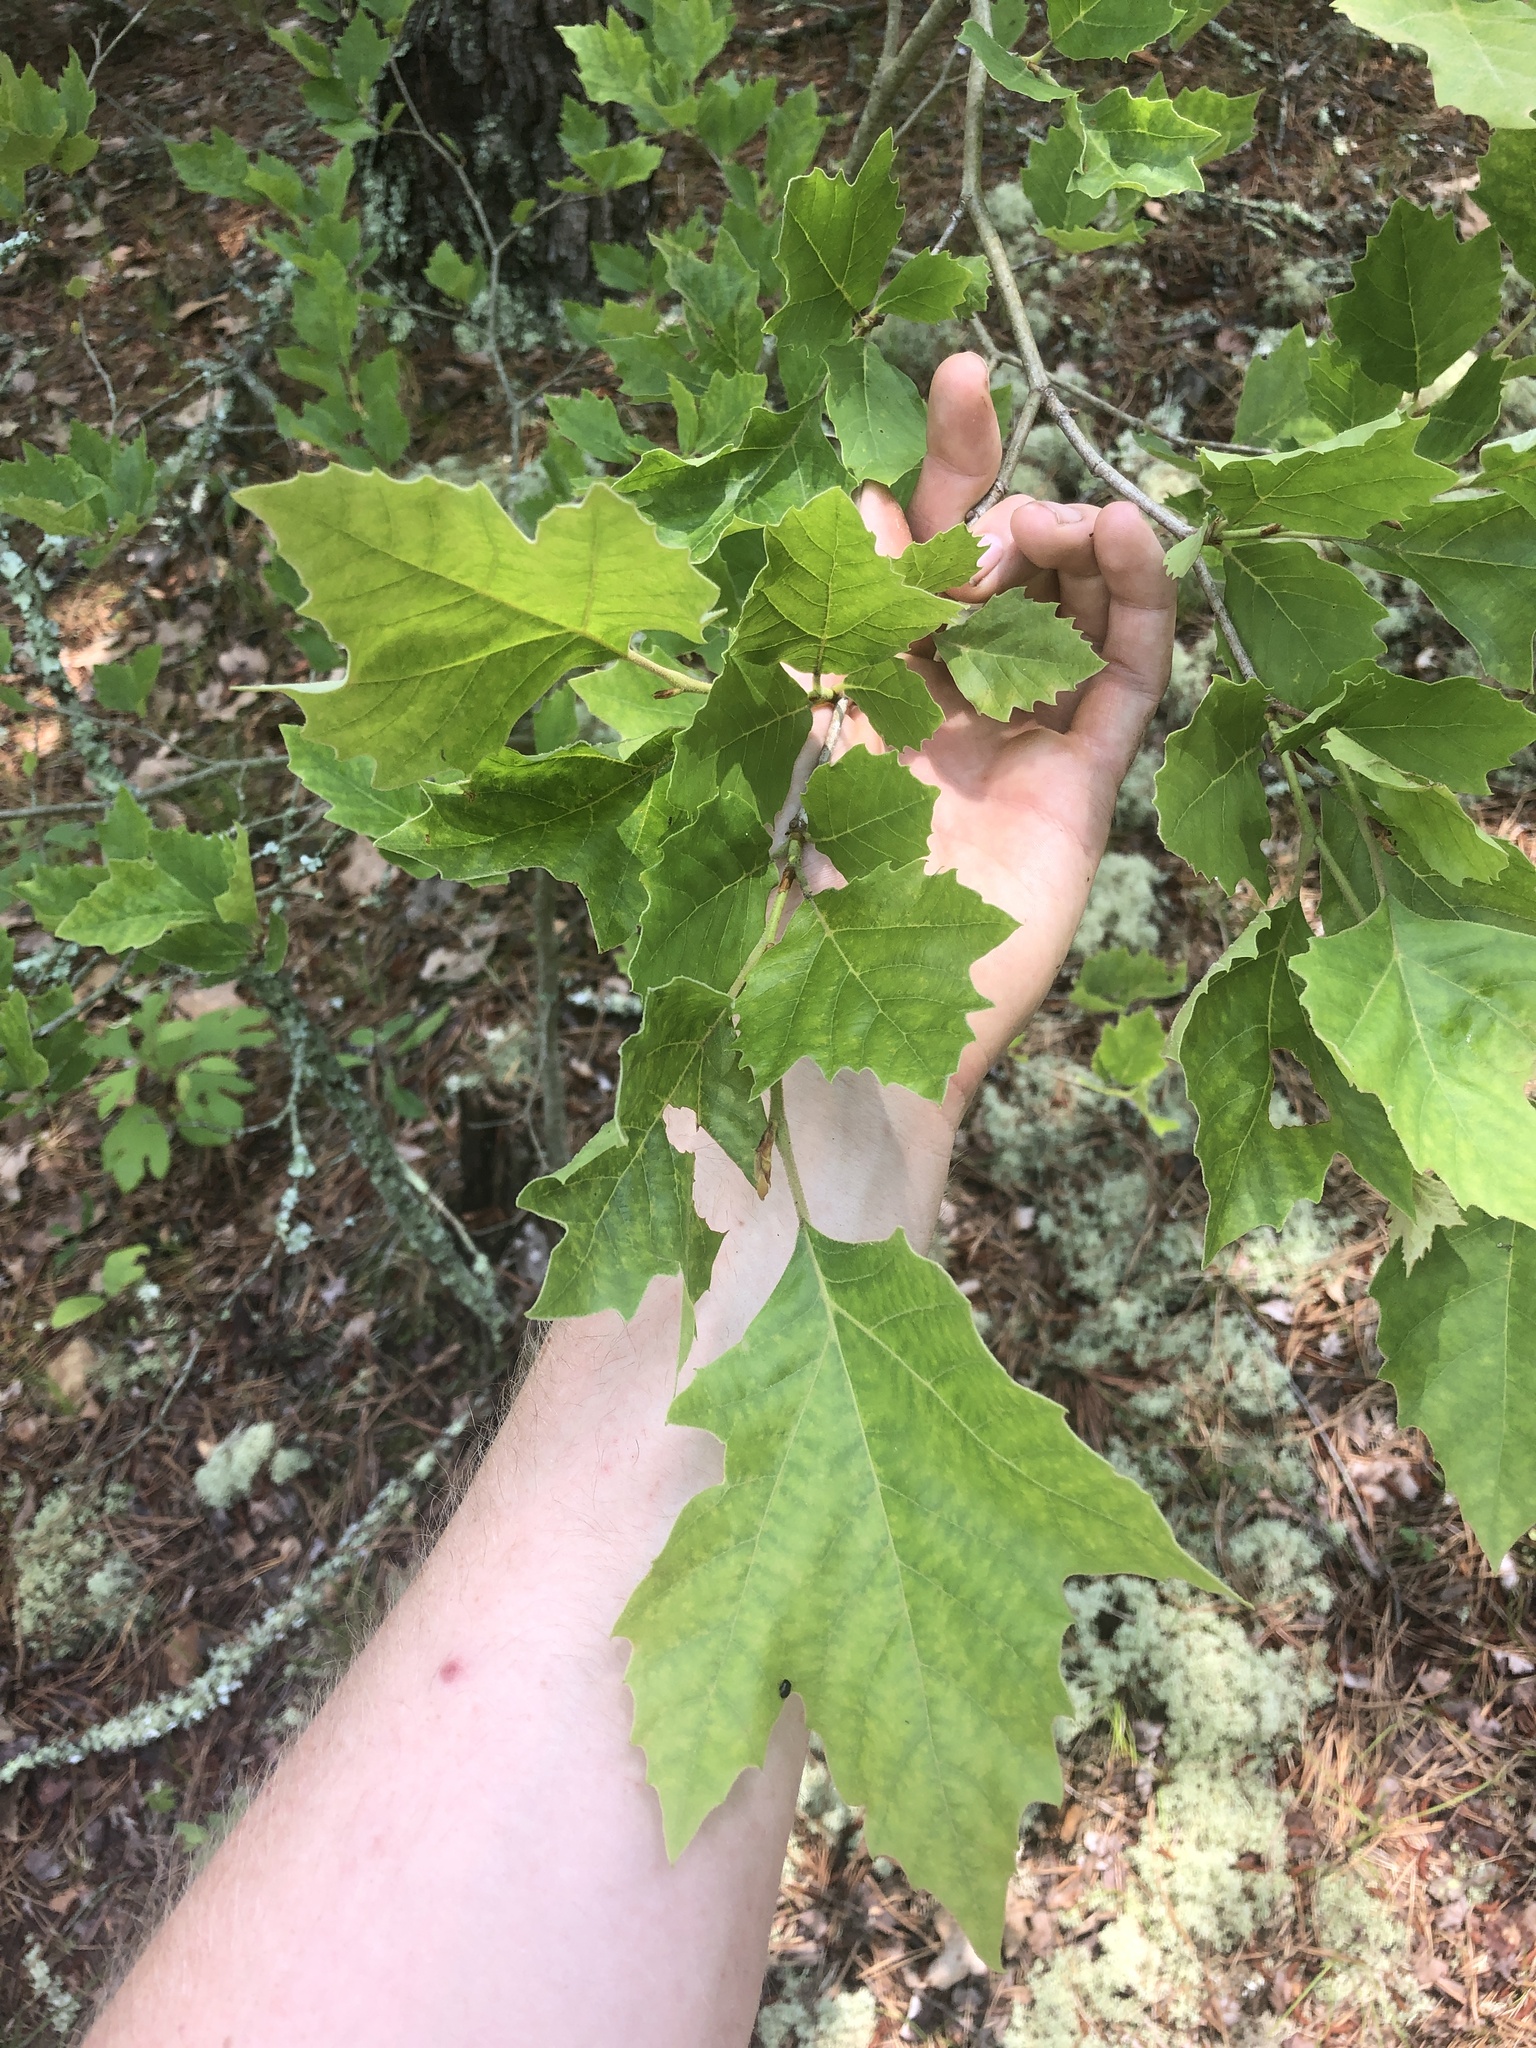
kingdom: Plantae
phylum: Tracheophyta
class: Magnoliopsida
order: Proteales
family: Platanaceae
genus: Platanus
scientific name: Platanus occidentalis
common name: American sycamore
